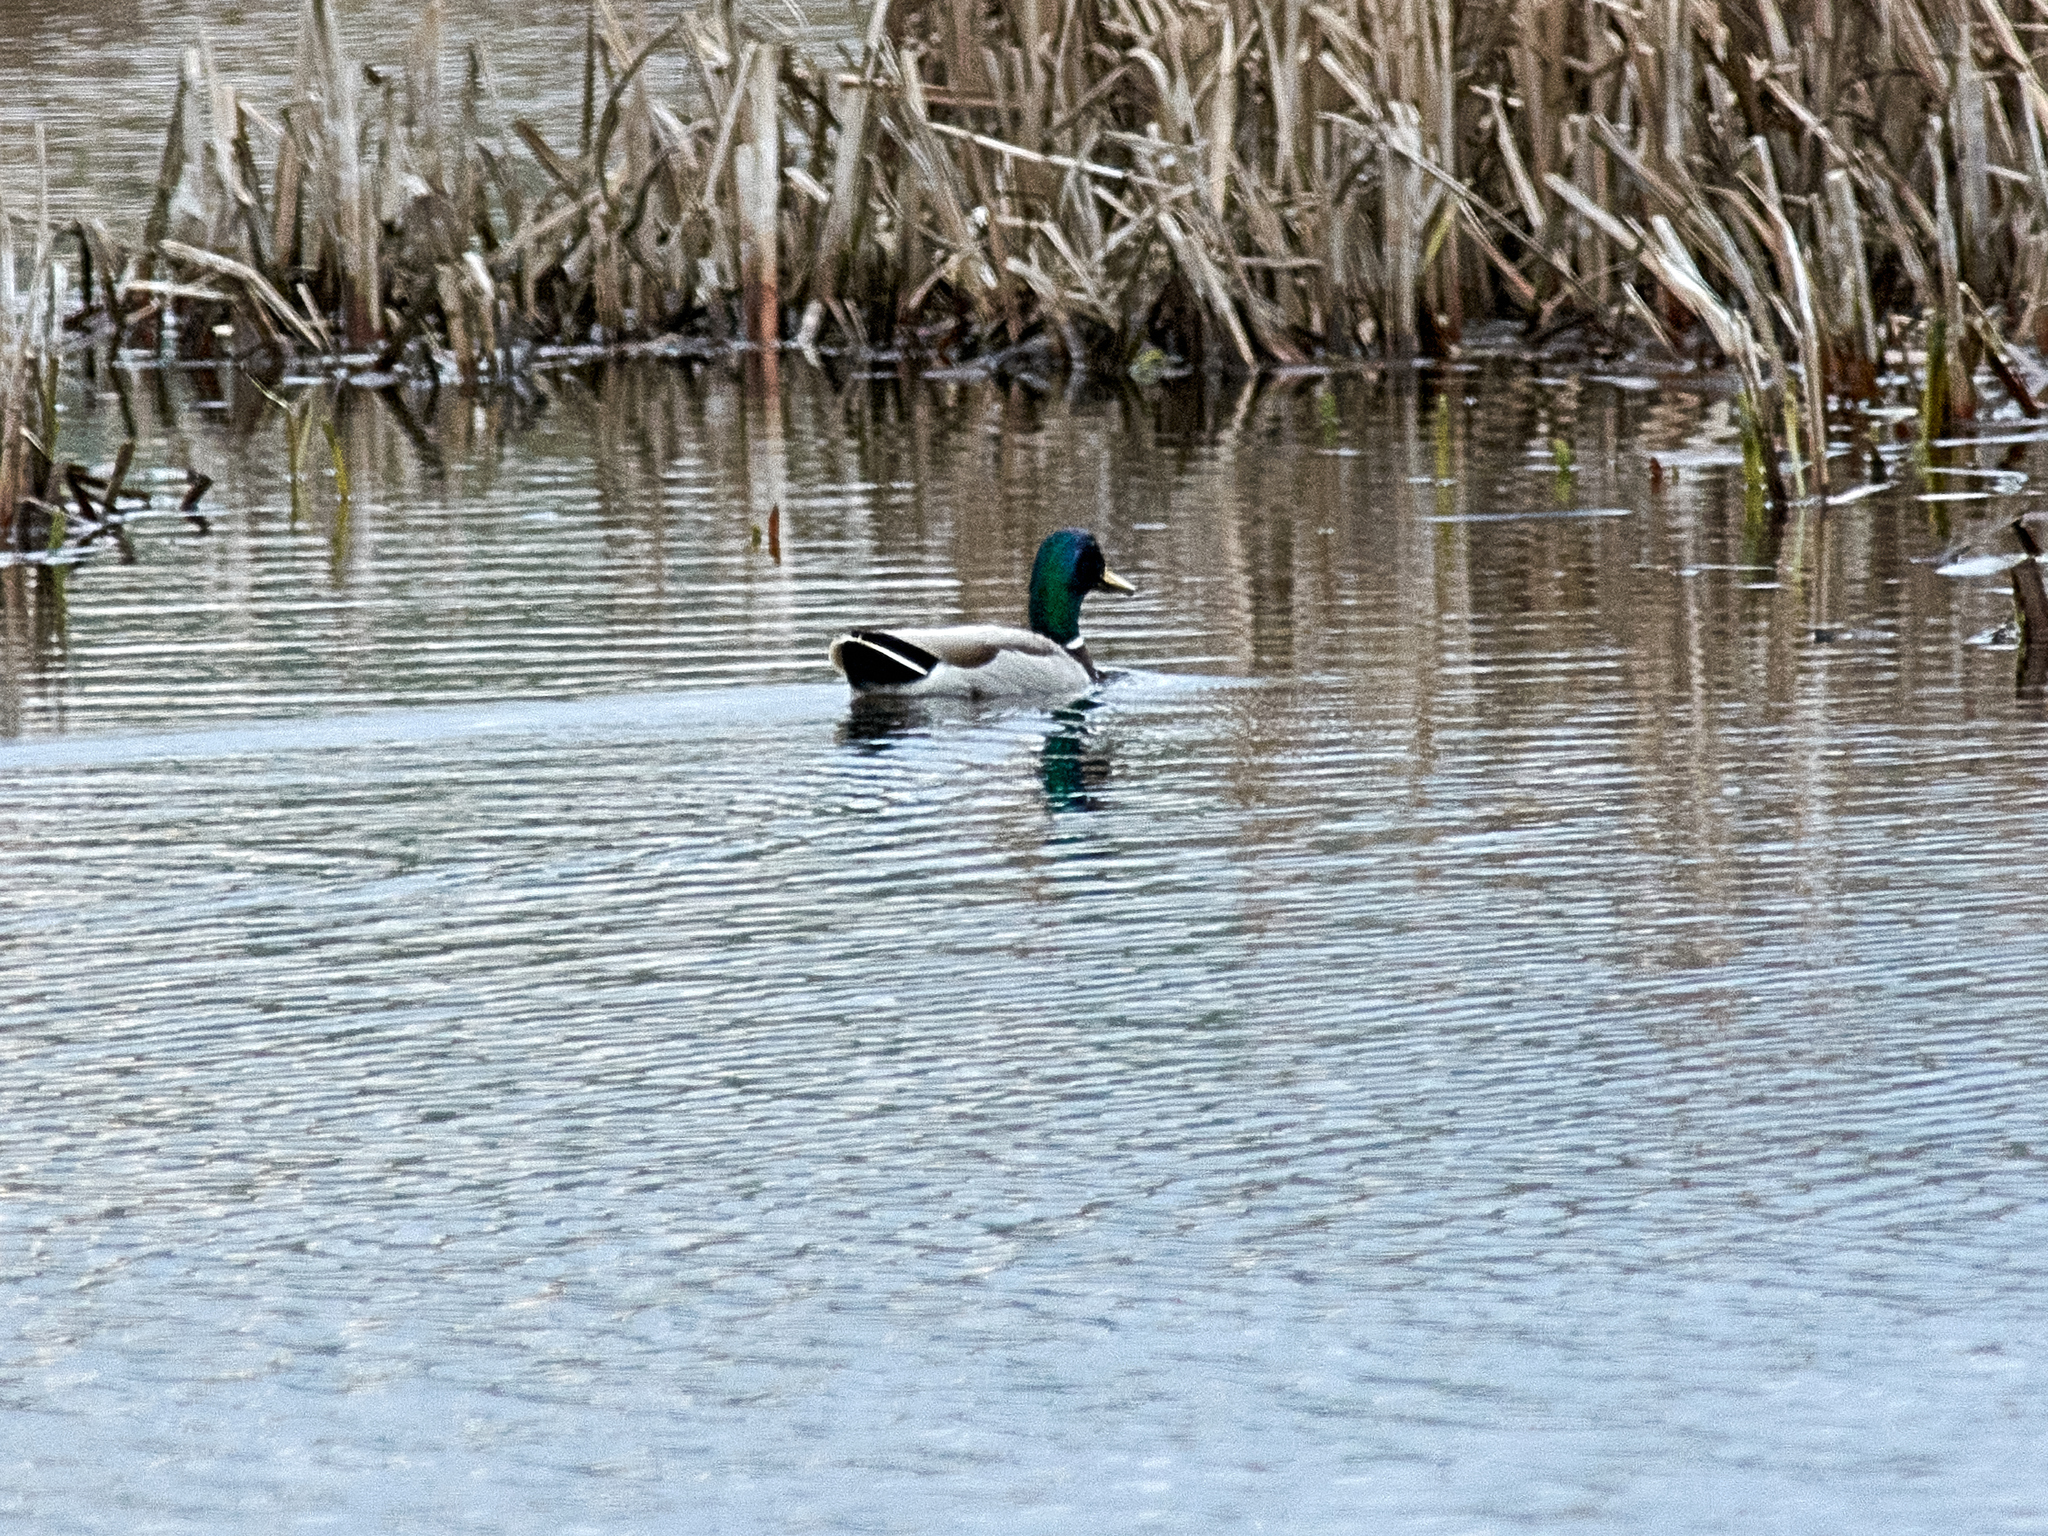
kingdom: Animalia
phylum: Chordata
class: Aves
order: Anseriformes
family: Anatidae
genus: Anas
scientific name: Anas platyrhynchos
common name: Mallard
